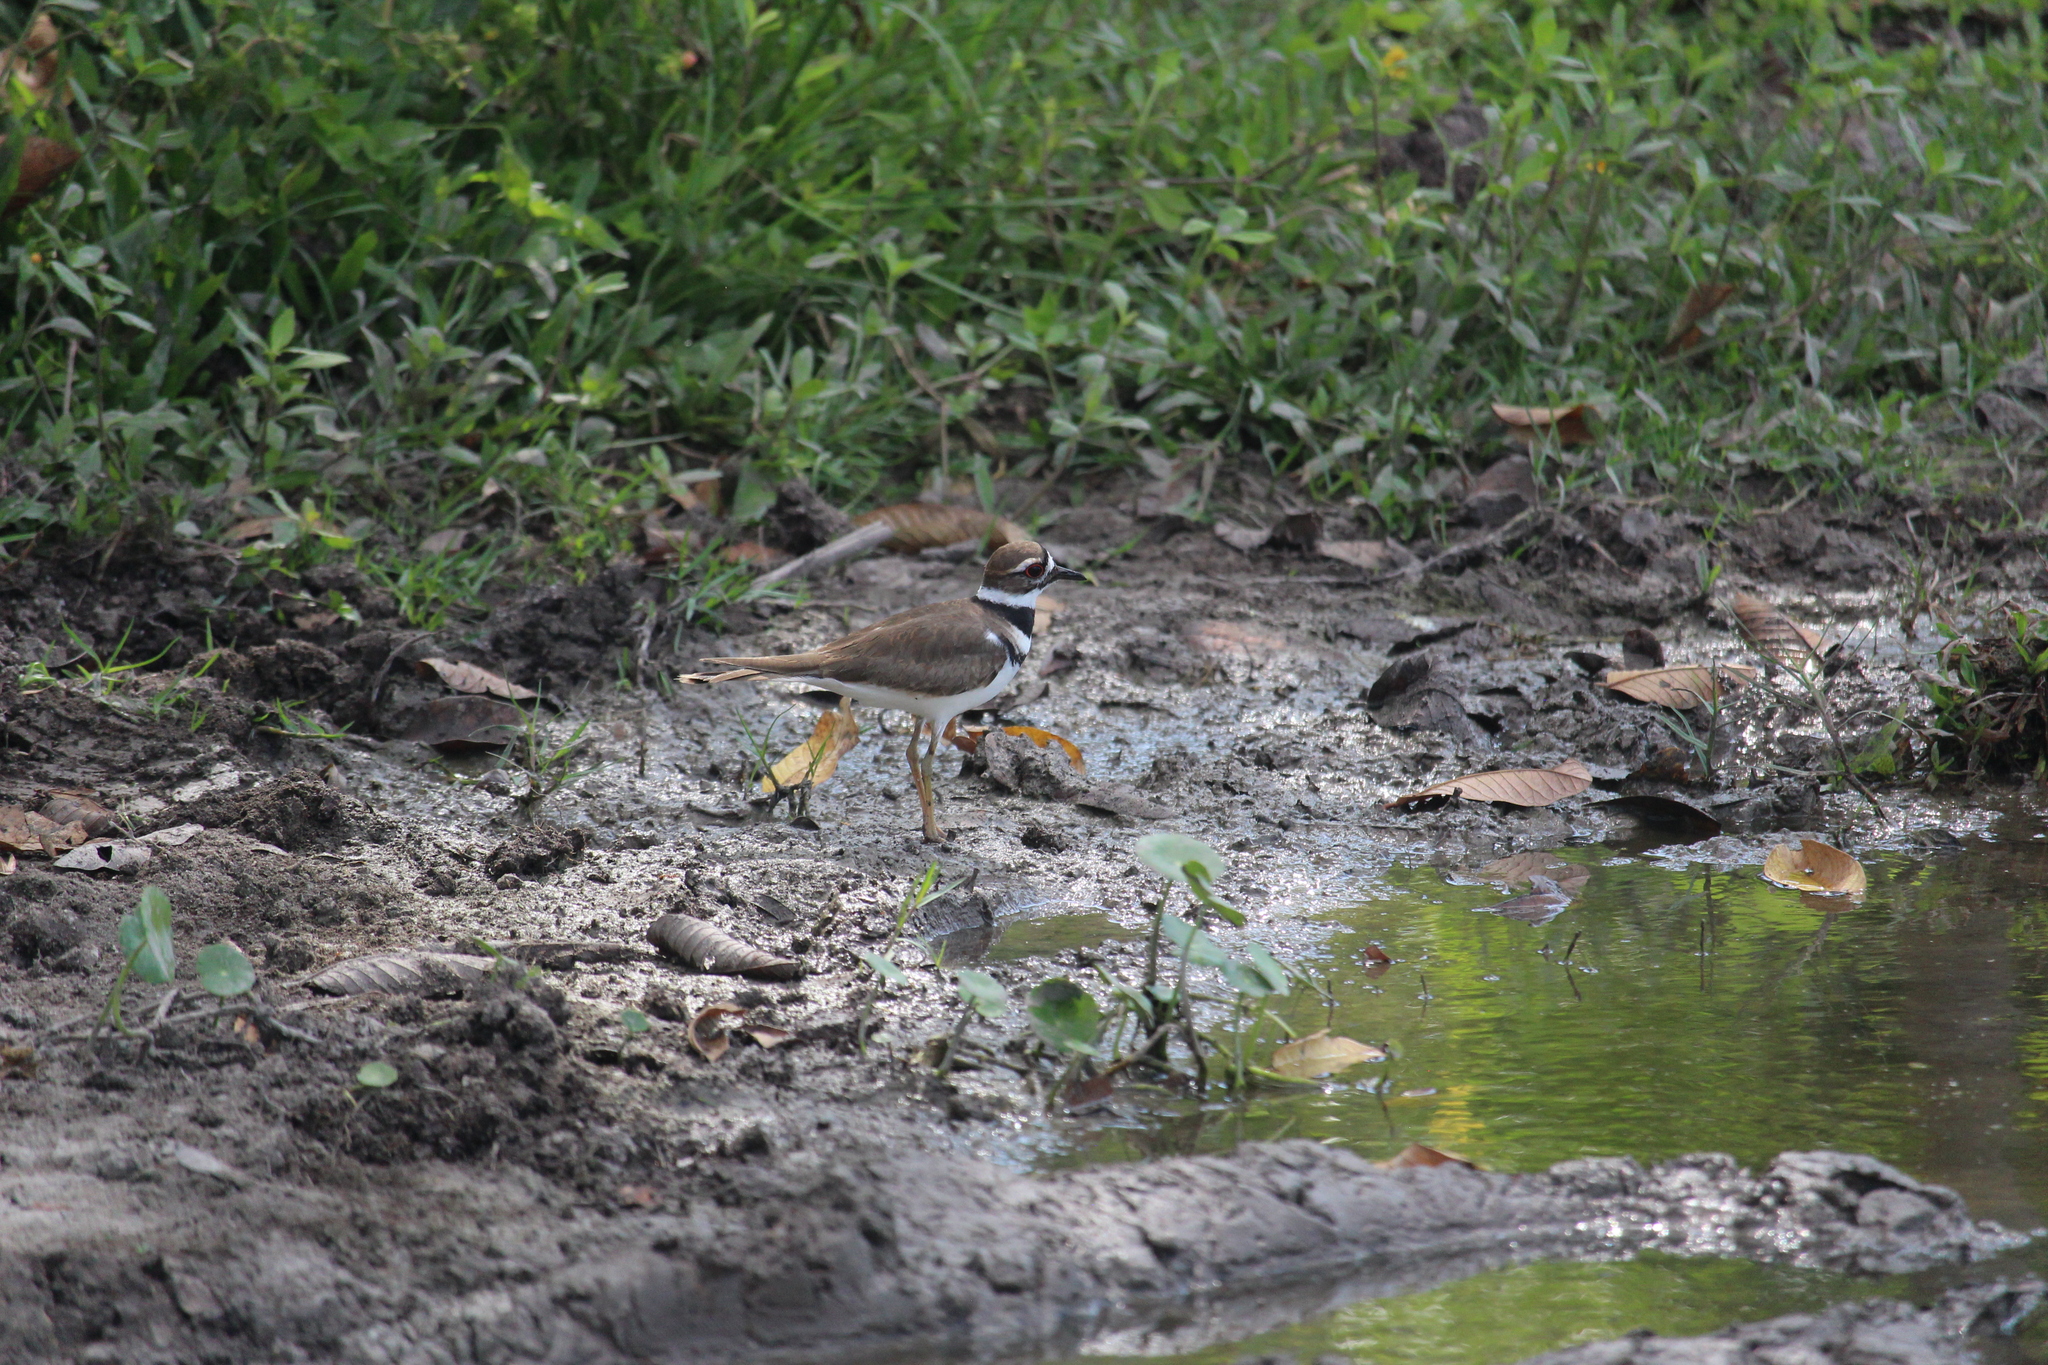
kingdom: Animalia
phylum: Chordata
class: Aves
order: Charadriiformes
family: Charadriidae
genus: Charadrius
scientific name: Charadrius vociferus
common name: Killdeer
